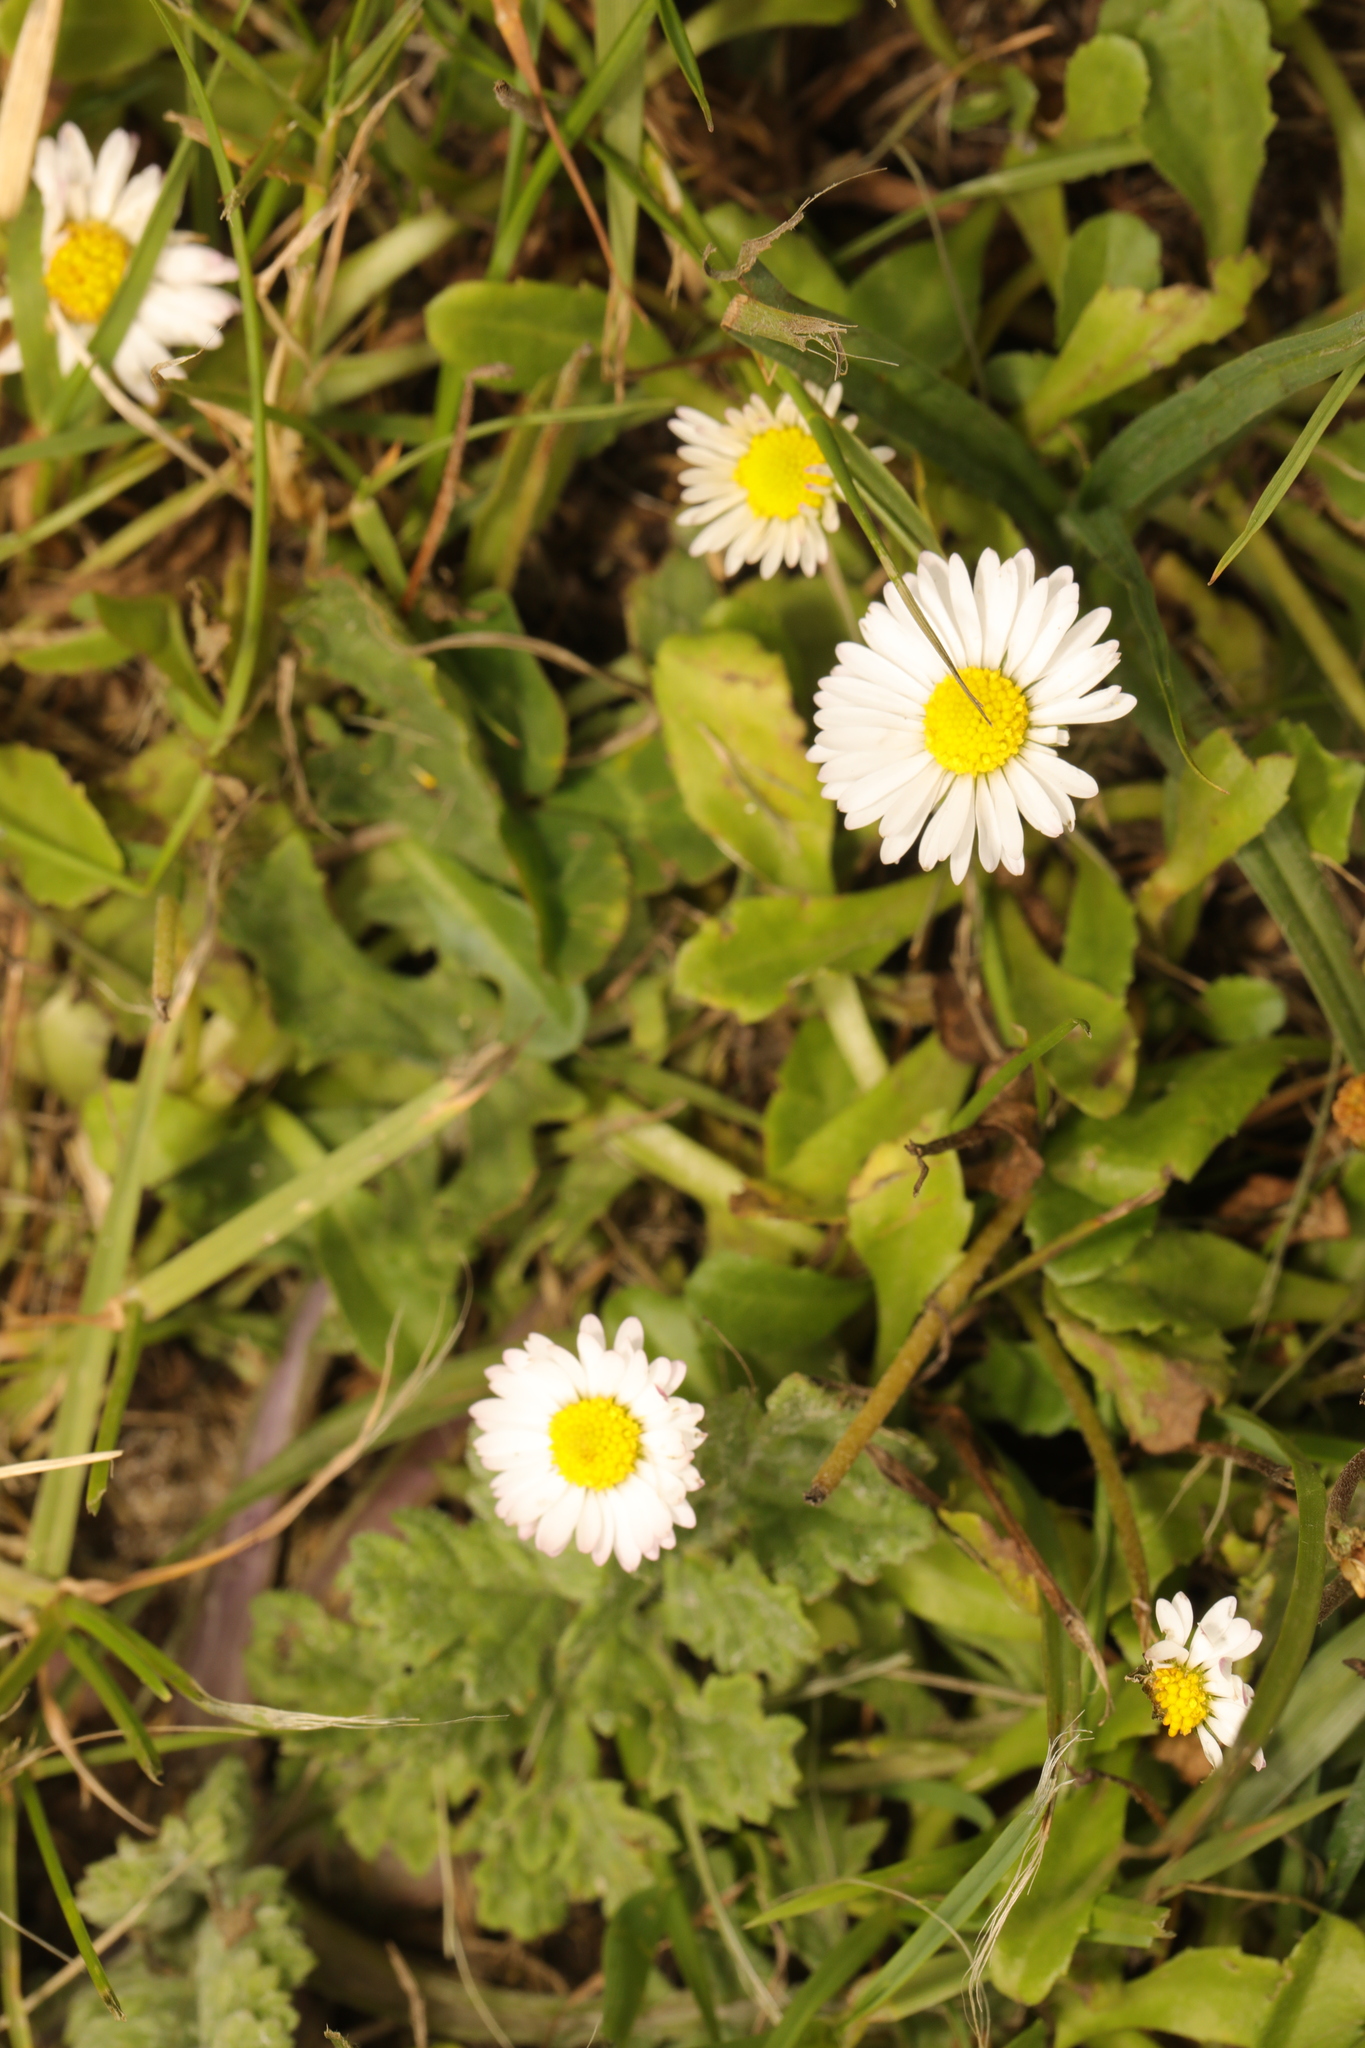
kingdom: Plantae
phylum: Tracheophyta
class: Magnoliopsida
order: Asterales
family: Asteraceae
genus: Bellis
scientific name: Bellis perennis
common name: Lawndaisy
